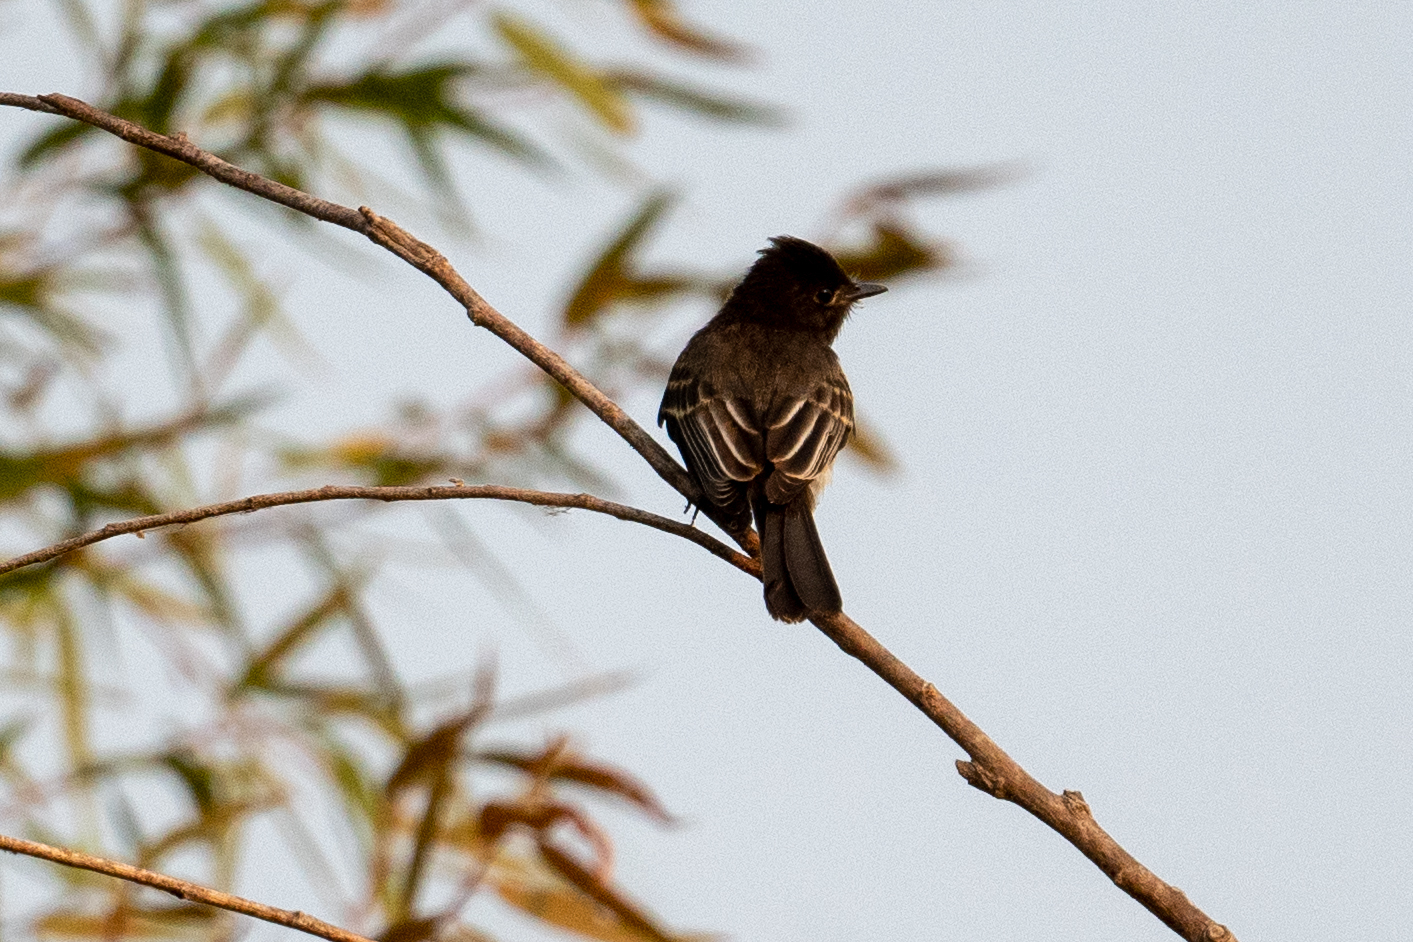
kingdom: Animalia
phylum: Chordata
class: Aves
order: Passeriformes
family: Tyrannidae
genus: Sayornis
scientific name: Sayornis nigricans
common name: Black phoebe
